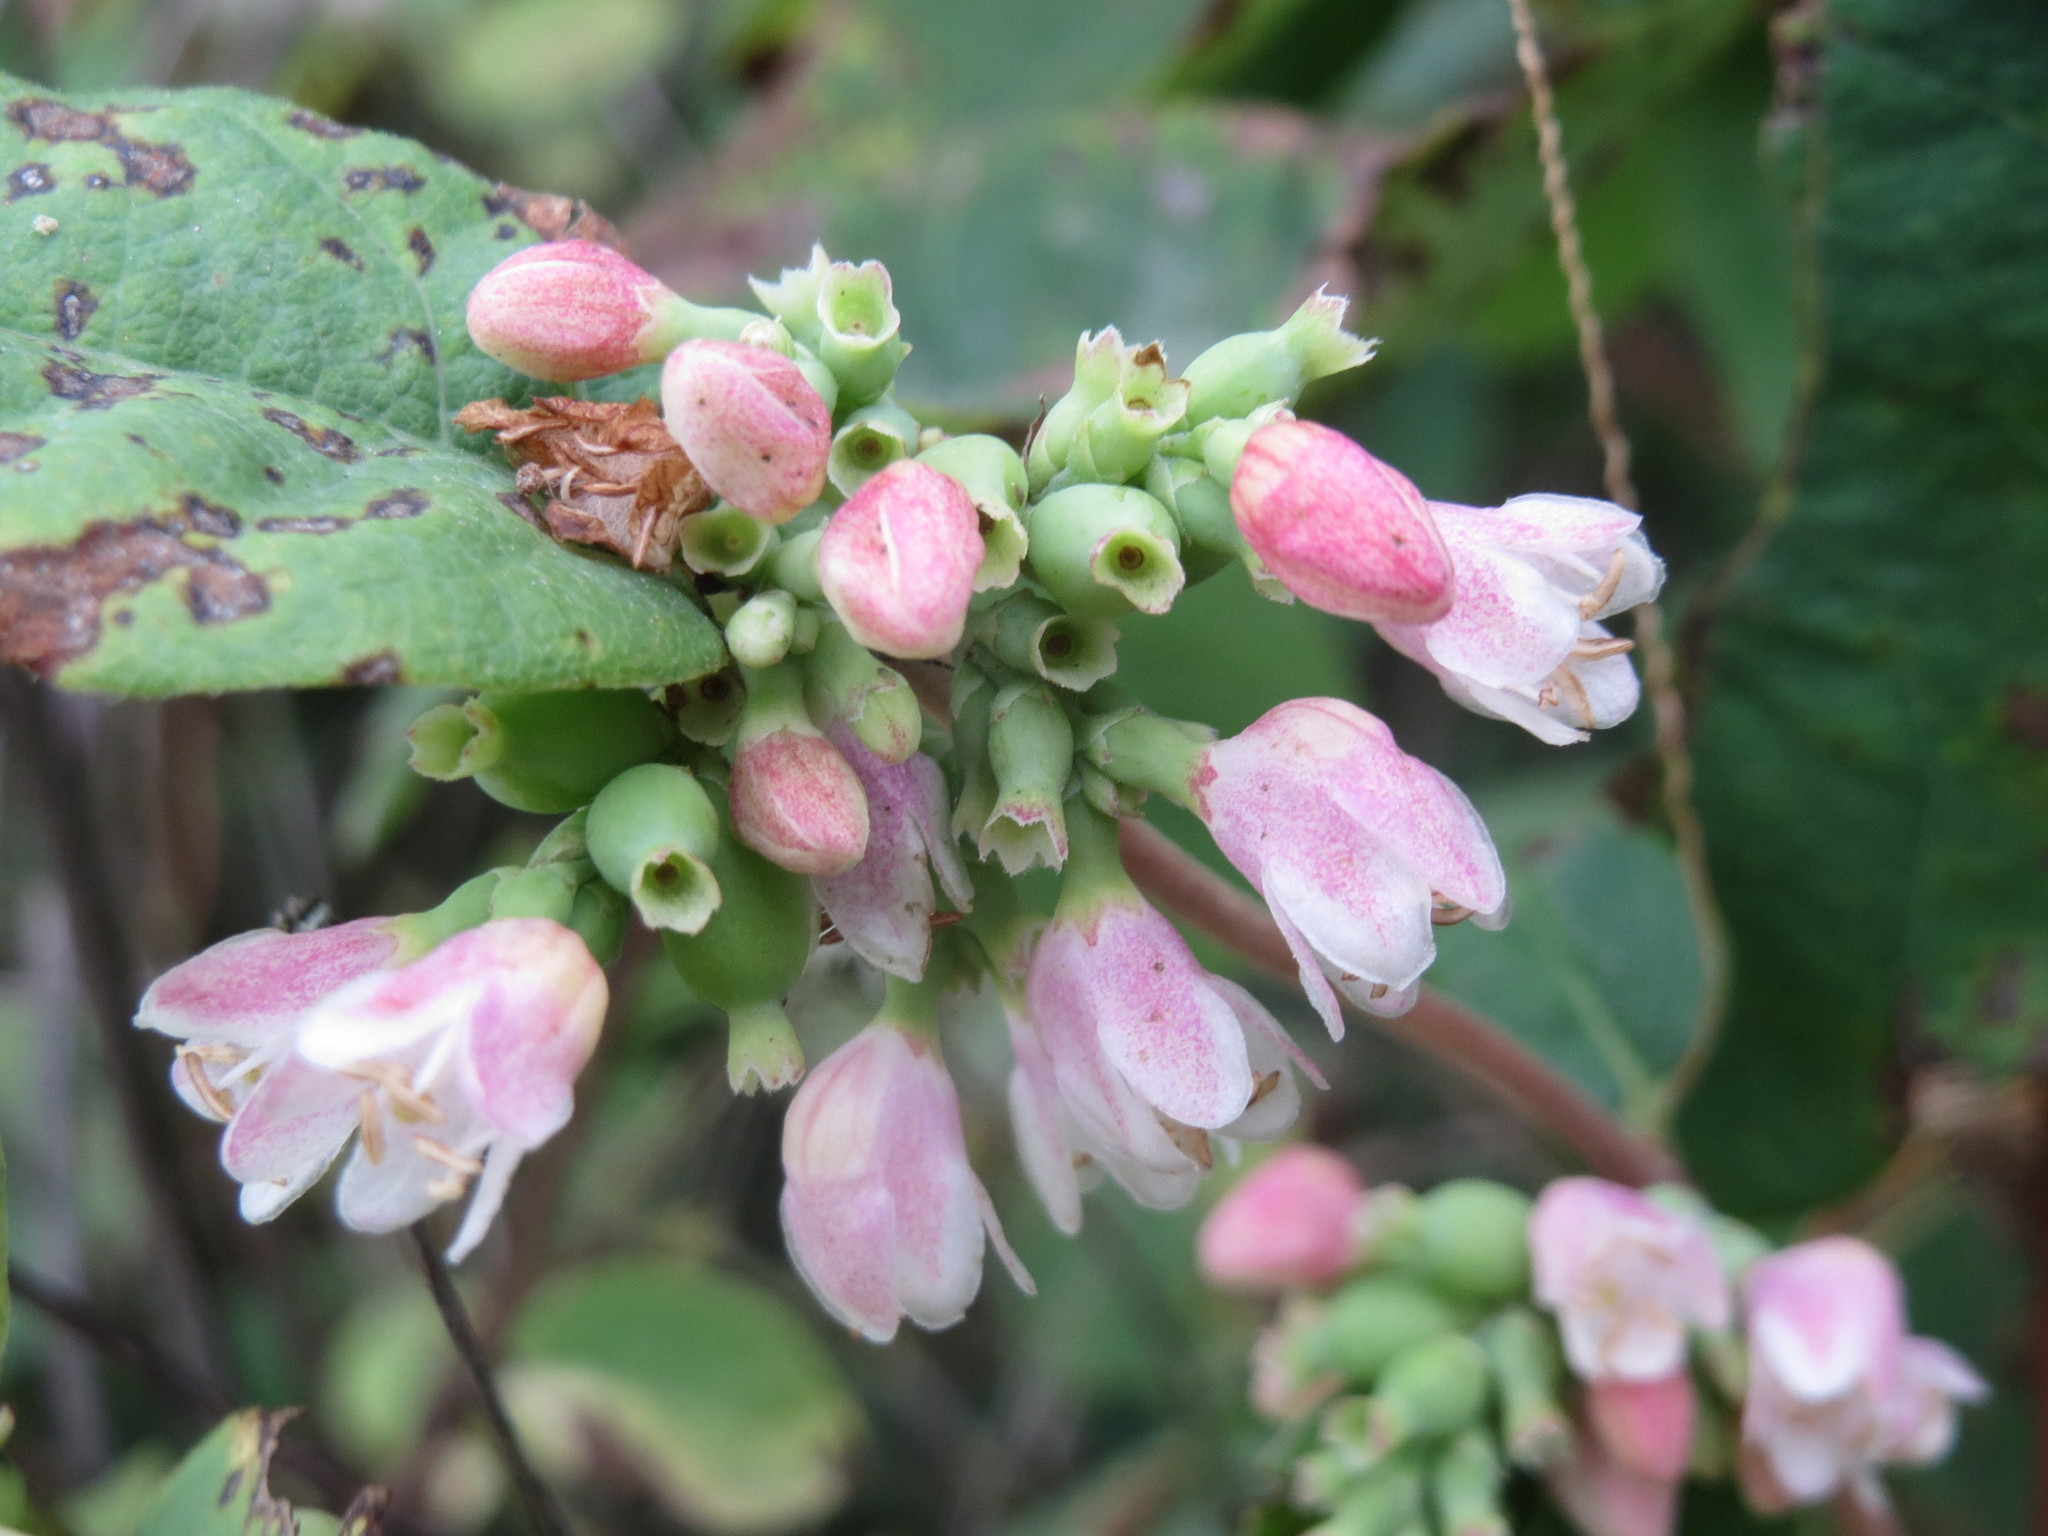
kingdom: Plantae
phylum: Tracheophyta
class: Magnoliopsida
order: Dipsacales
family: Caprifoliaceae
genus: Symphoricarpos
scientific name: Symphoricarpos albus
